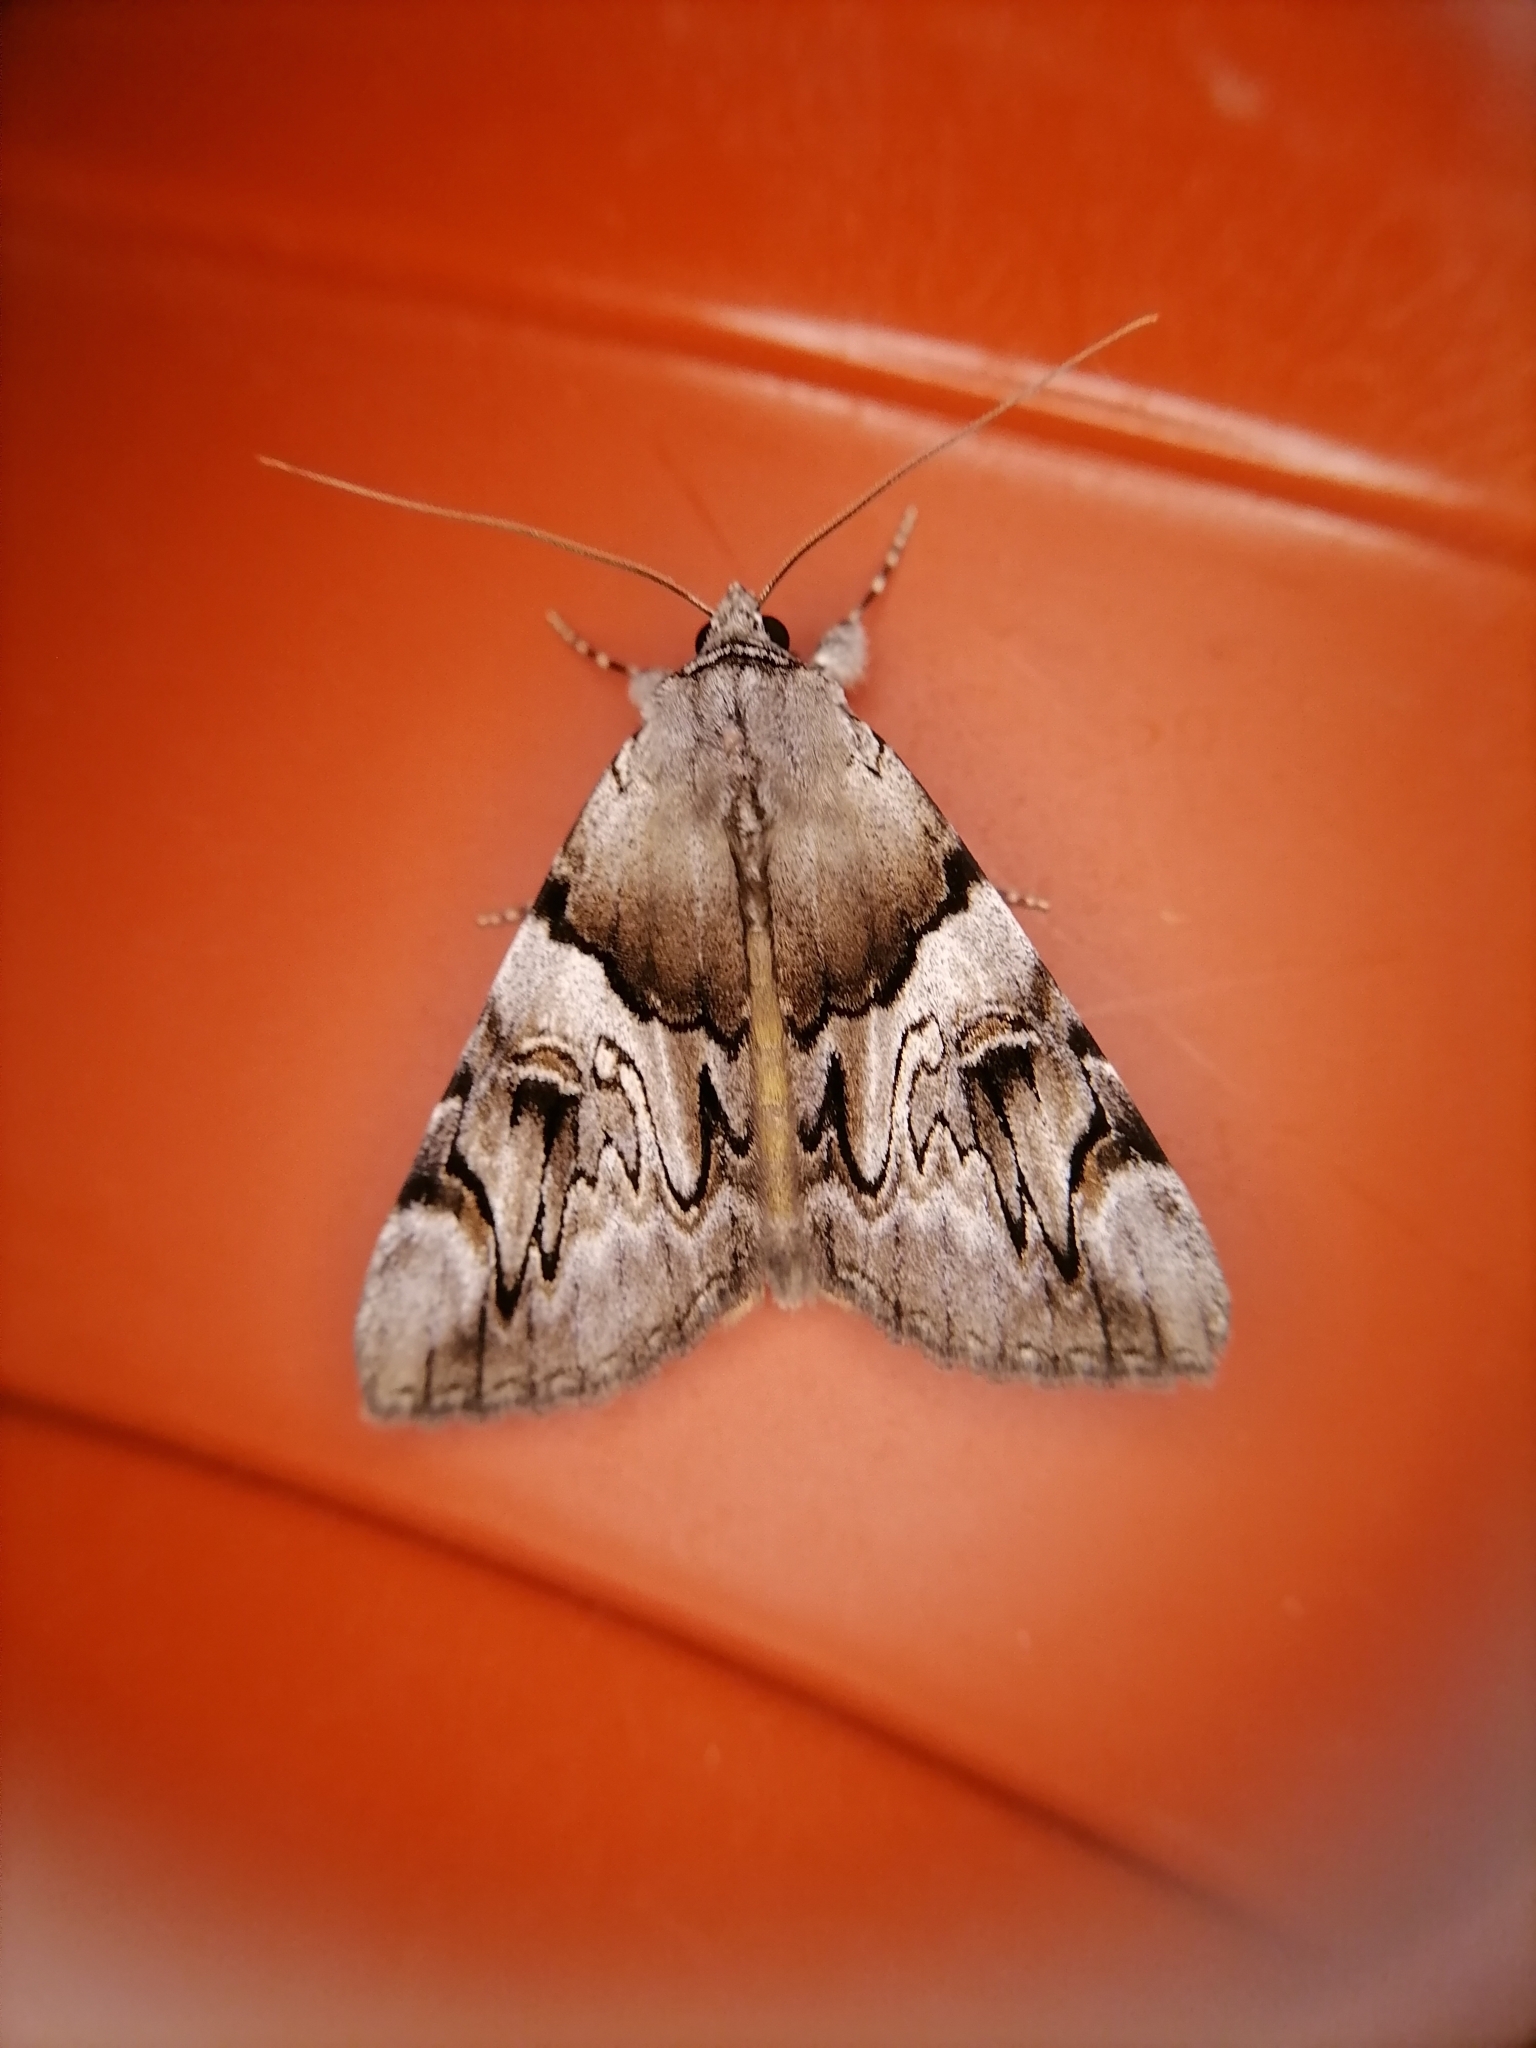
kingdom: Animalia
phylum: Arthropoda
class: Insecta
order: Lepidoptera
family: Erebidae
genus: Catocala
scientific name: Catocala fulminea
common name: Yellow bands underwing
